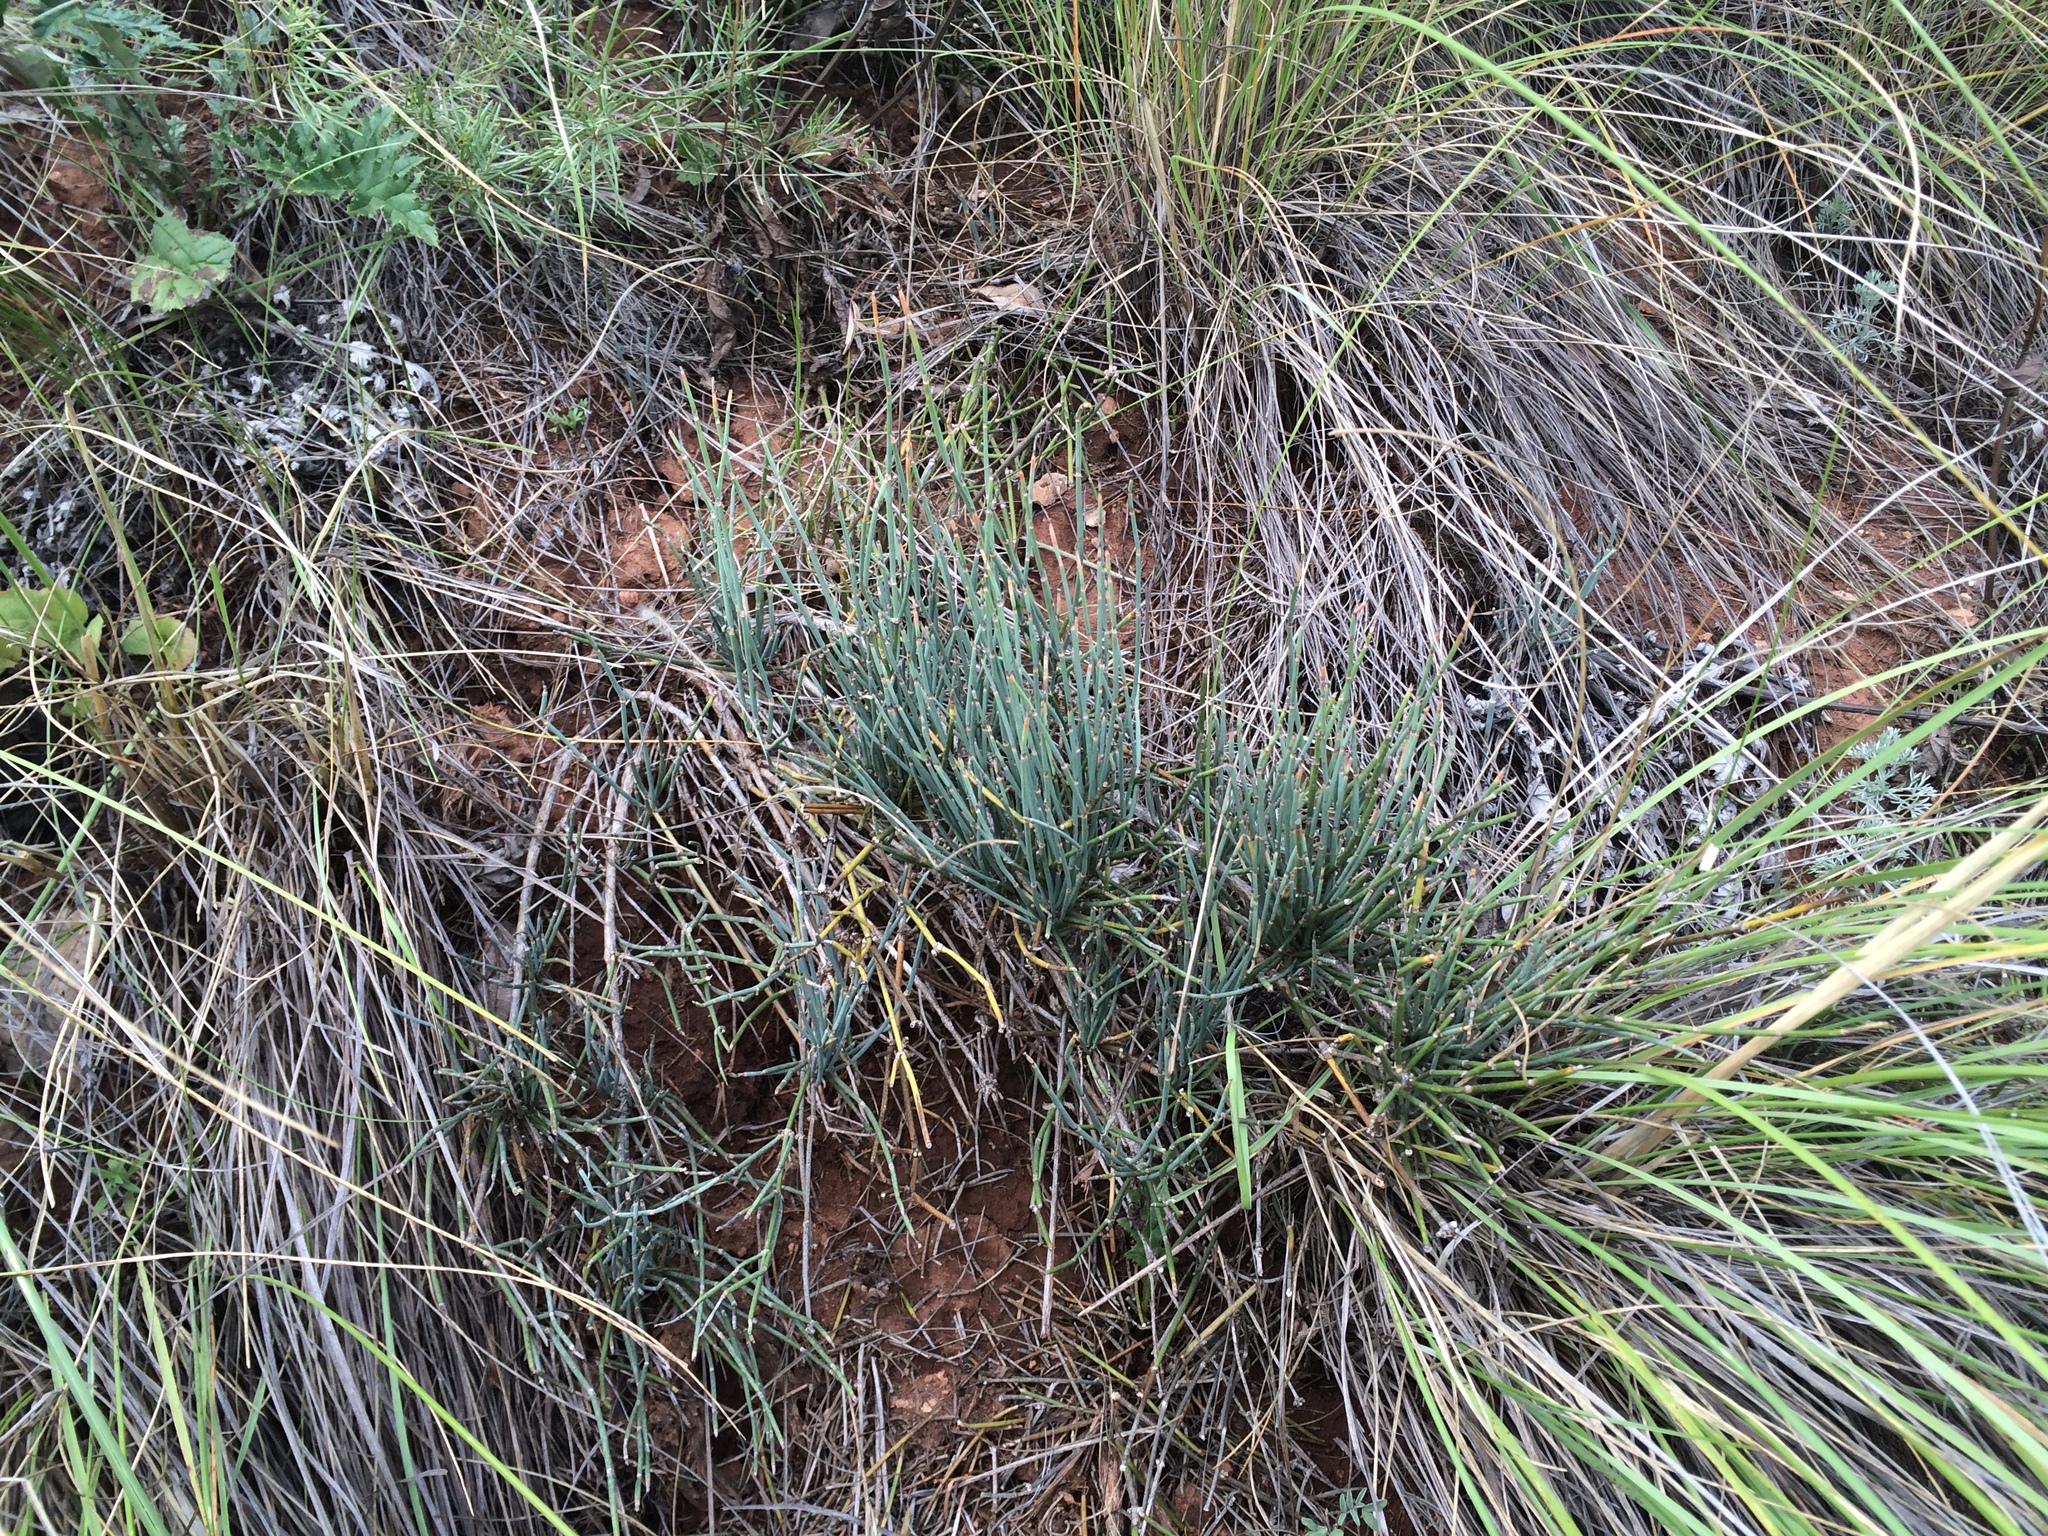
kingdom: Plantae
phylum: Tracheophyta
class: Gnetopsida
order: Ephedrales
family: Ephedraceae
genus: Ephedra
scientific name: Ephedra distachya
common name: Sea grape
